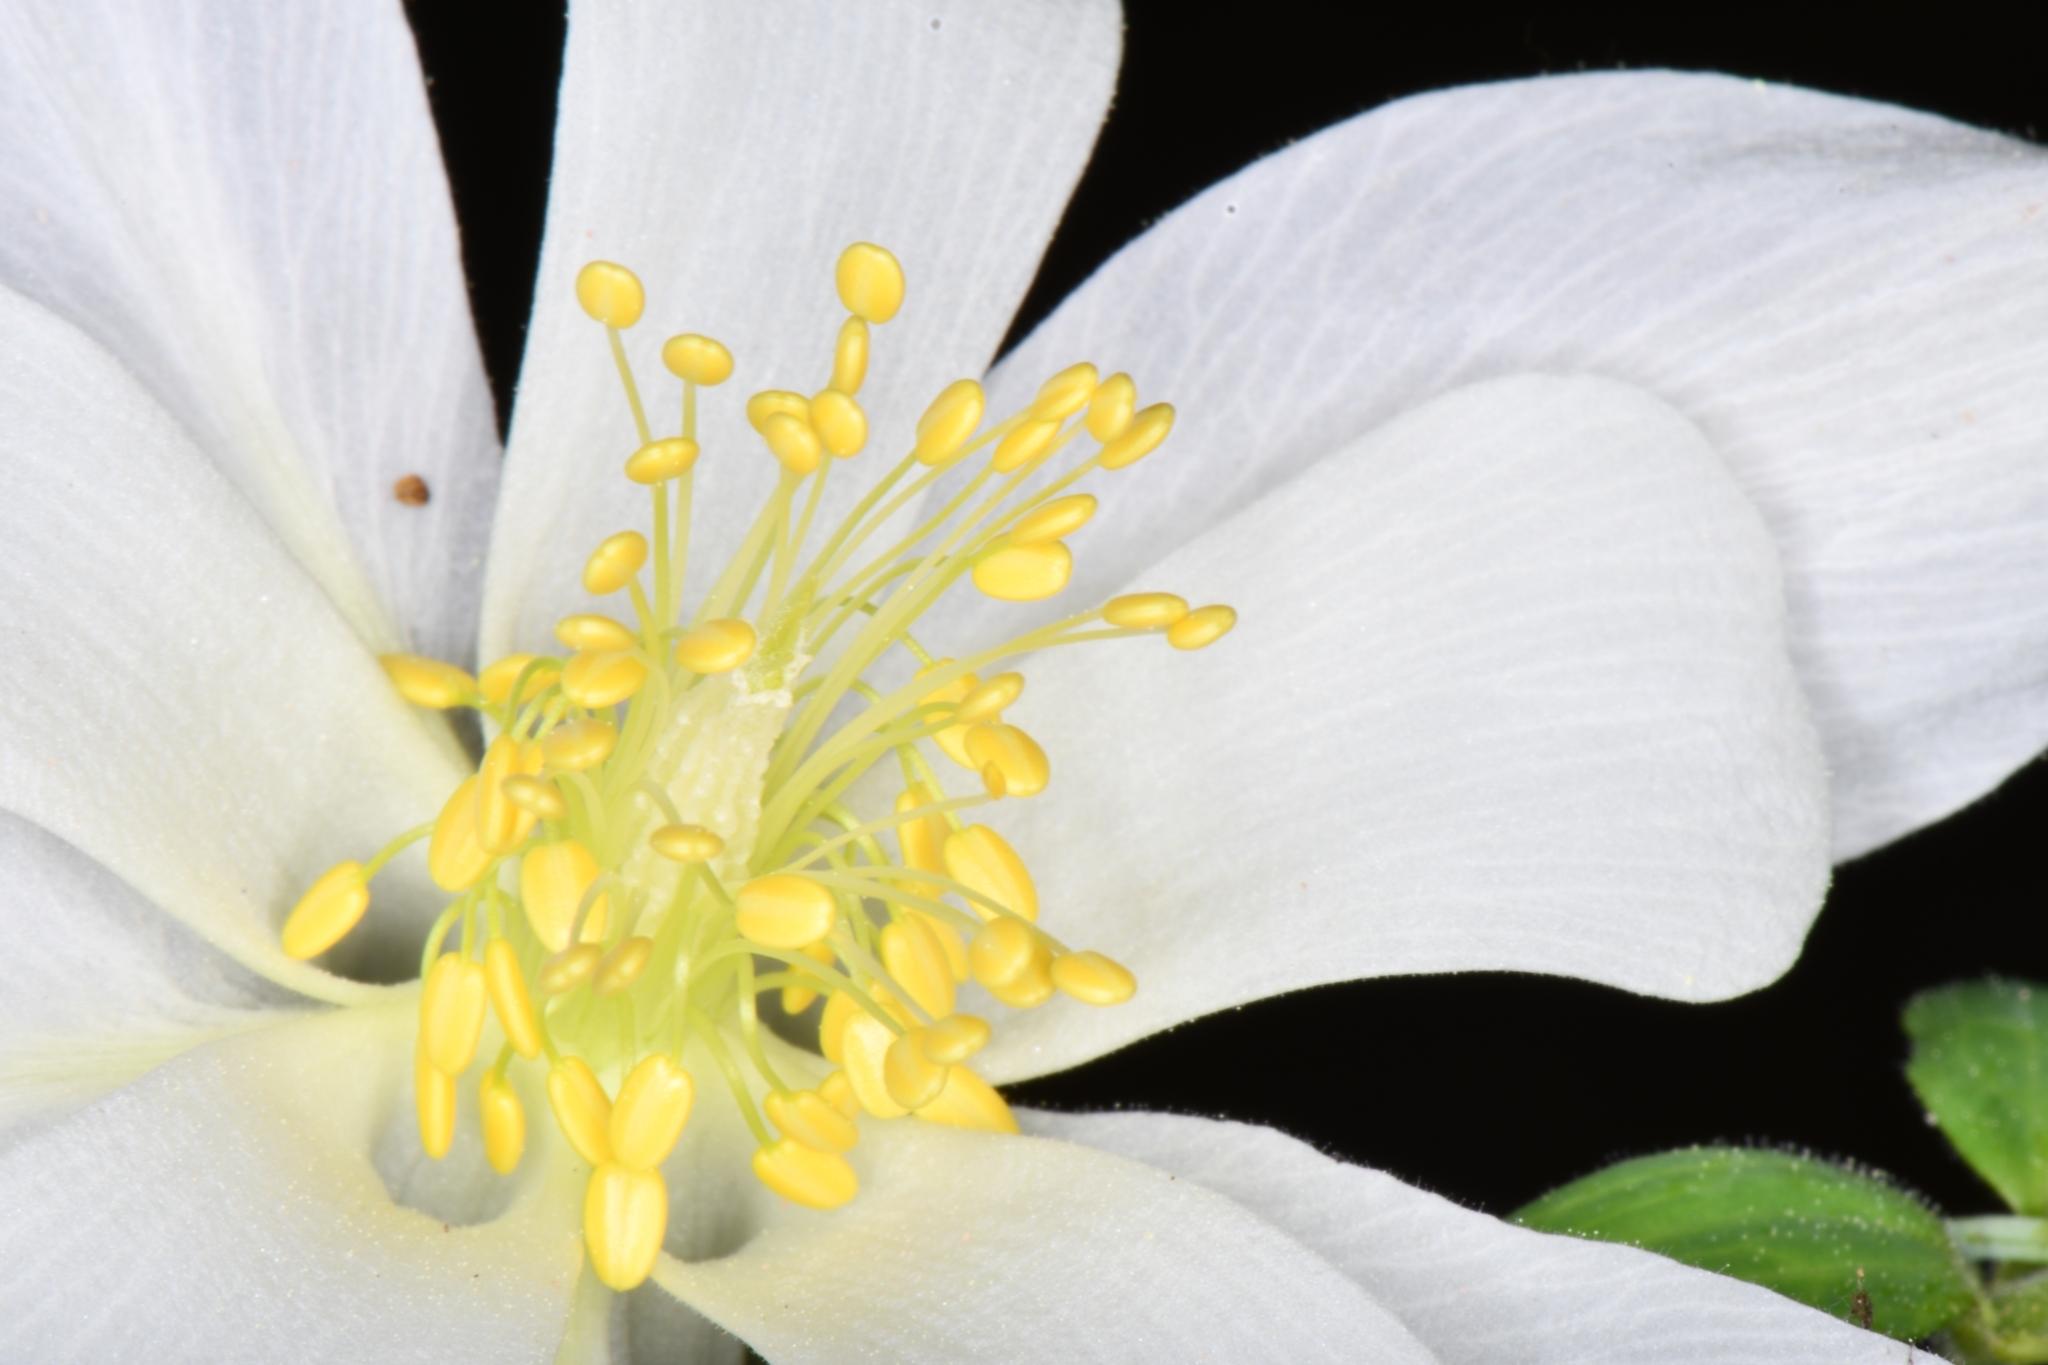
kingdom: Plantae
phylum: Tracheophyta
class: Magnoliopsida
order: Ranunculales
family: Ranunculaceae
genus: Aquilegia
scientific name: Aquilegia coerulea
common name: Rocky mountain columbine
